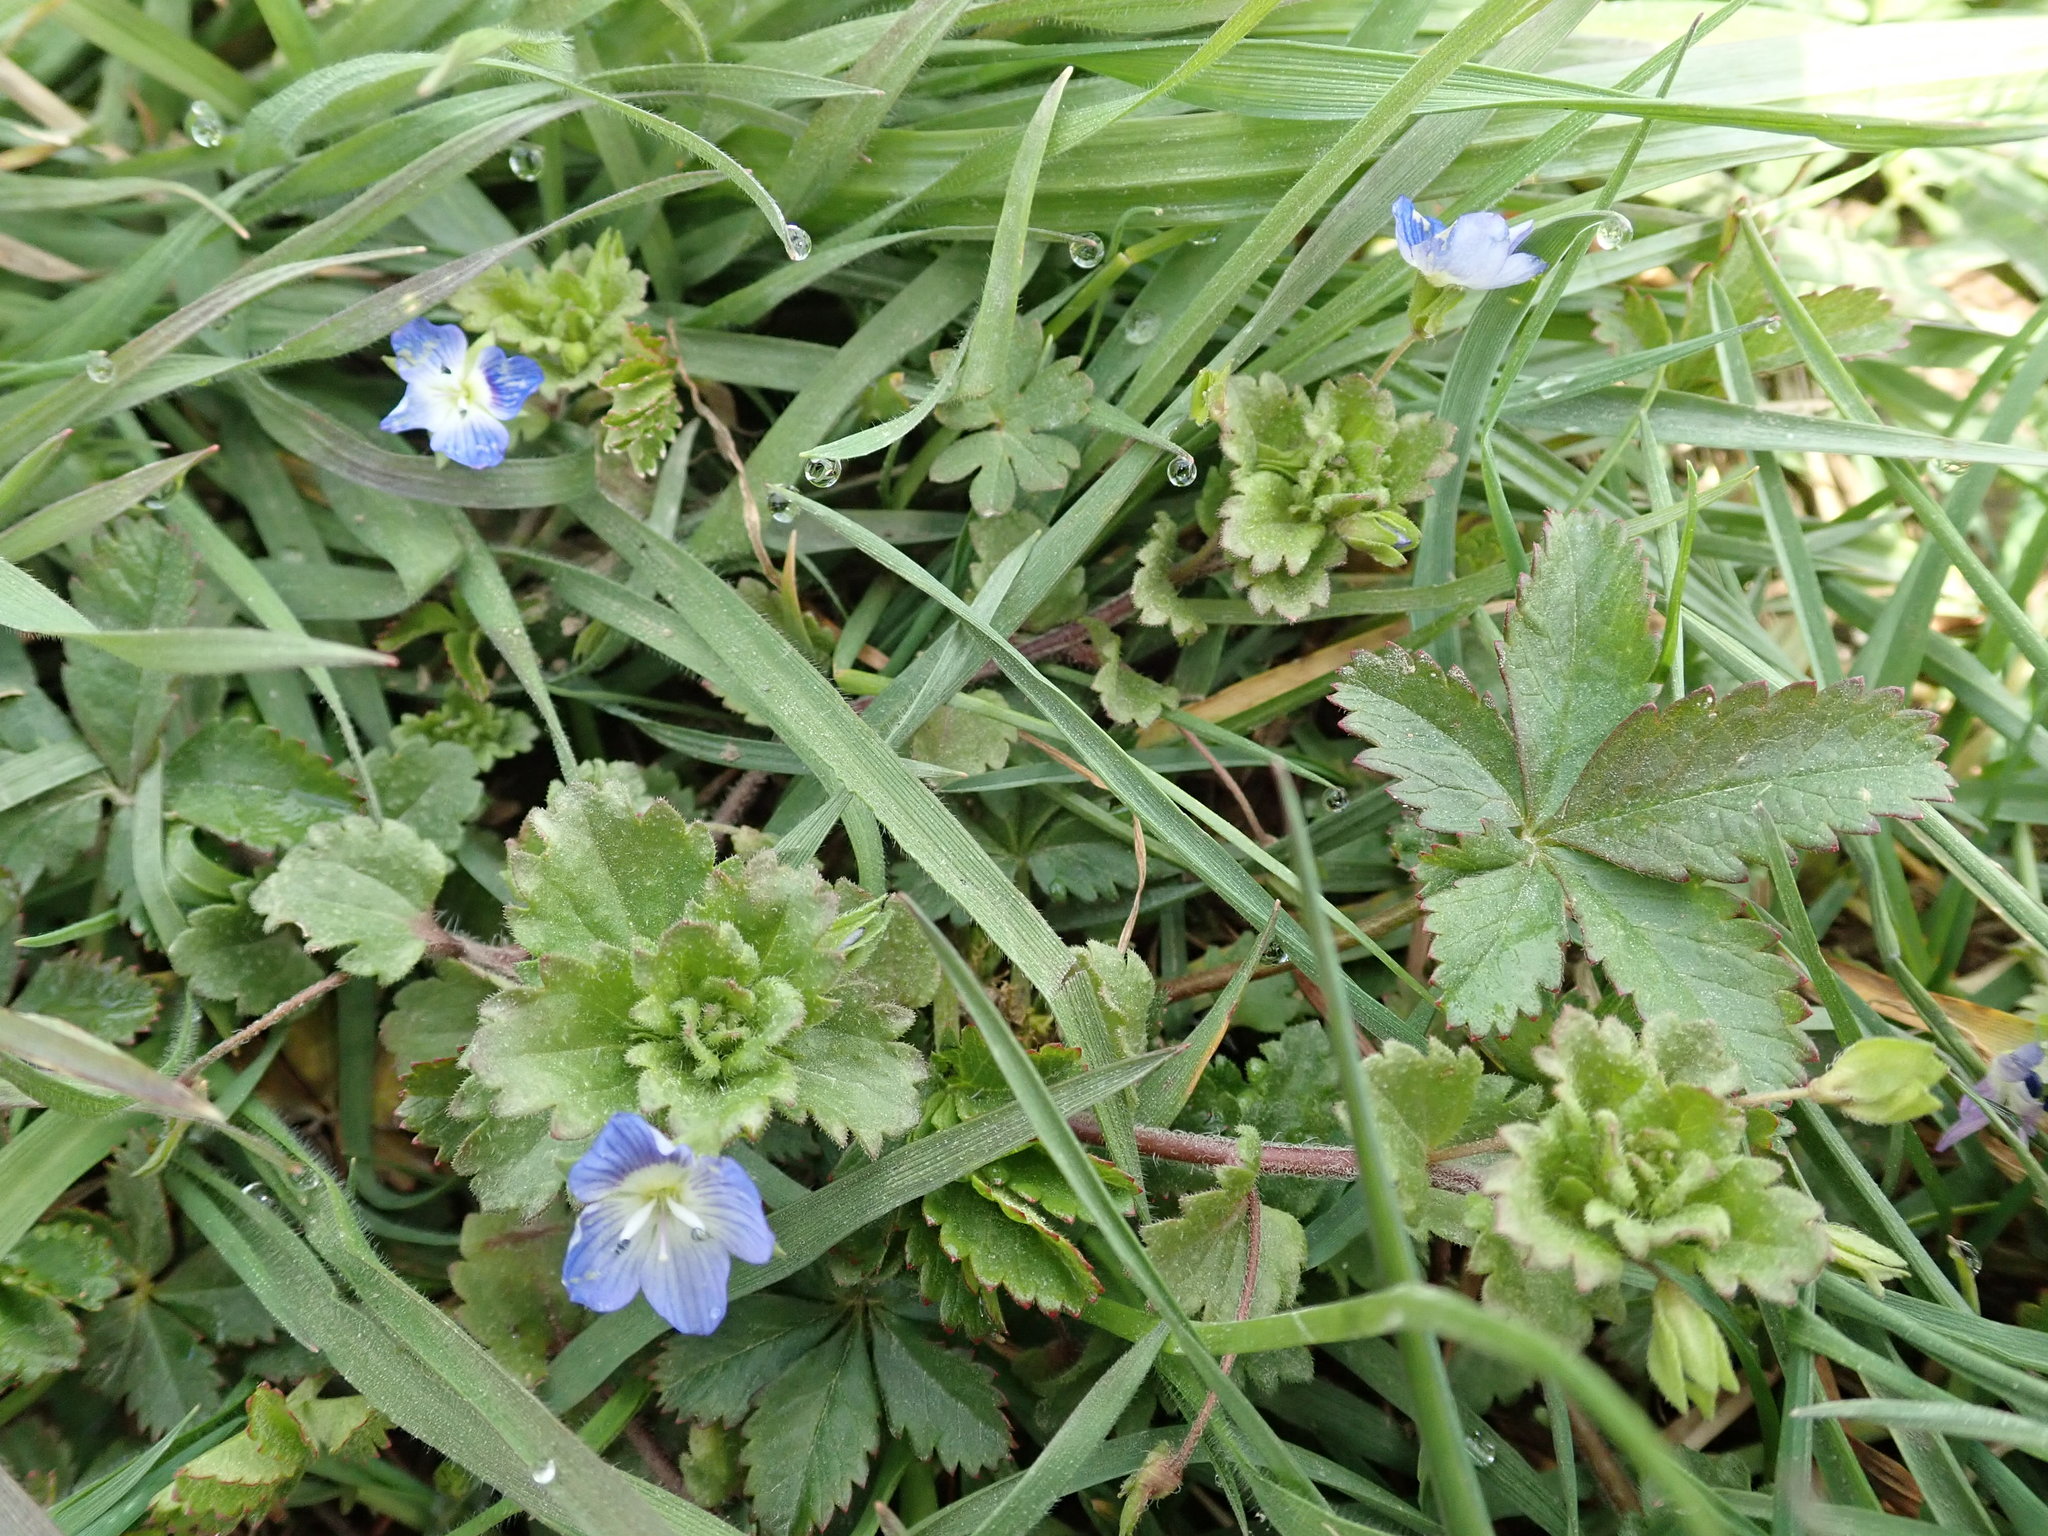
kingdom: Plantae
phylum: Tracheophyta
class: Magnoliopsida
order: Lamiales
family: Plantaginaceae
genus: Veronica
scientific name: Veronica persica
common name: Common field-speedwell
